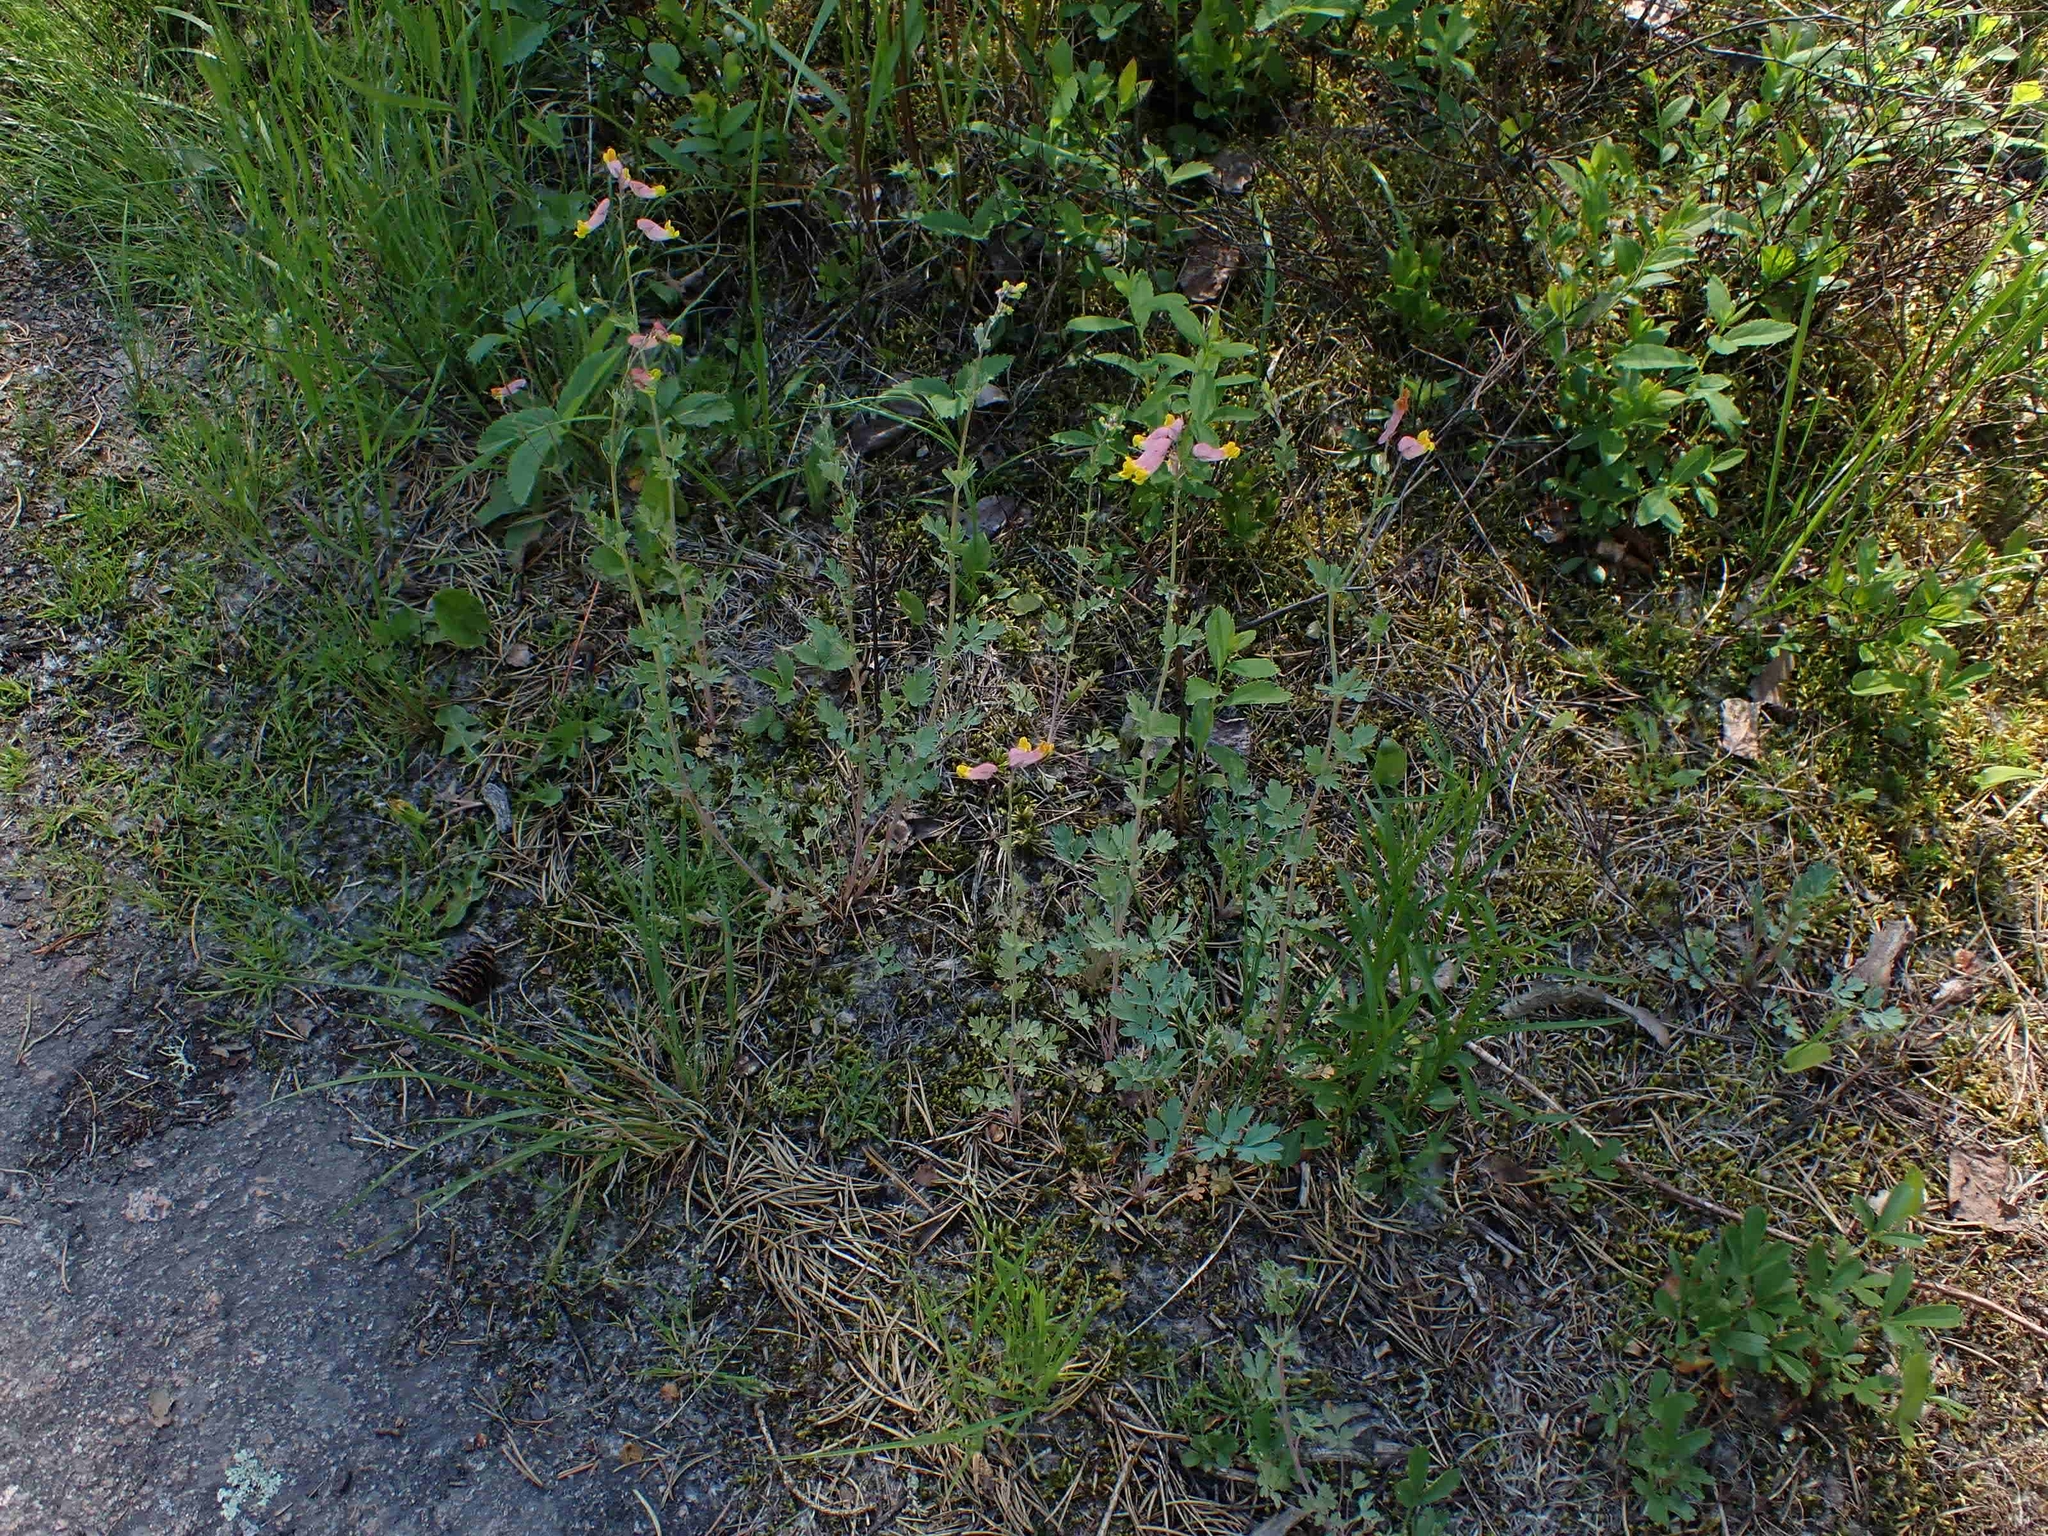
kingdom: Plantae
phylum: Tracheophyta
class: Magnoliopsida
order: Ranunculales
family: Papaveraceae
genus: Capnoides
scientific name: Capnoides sempervirens
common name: Rock harlequin
